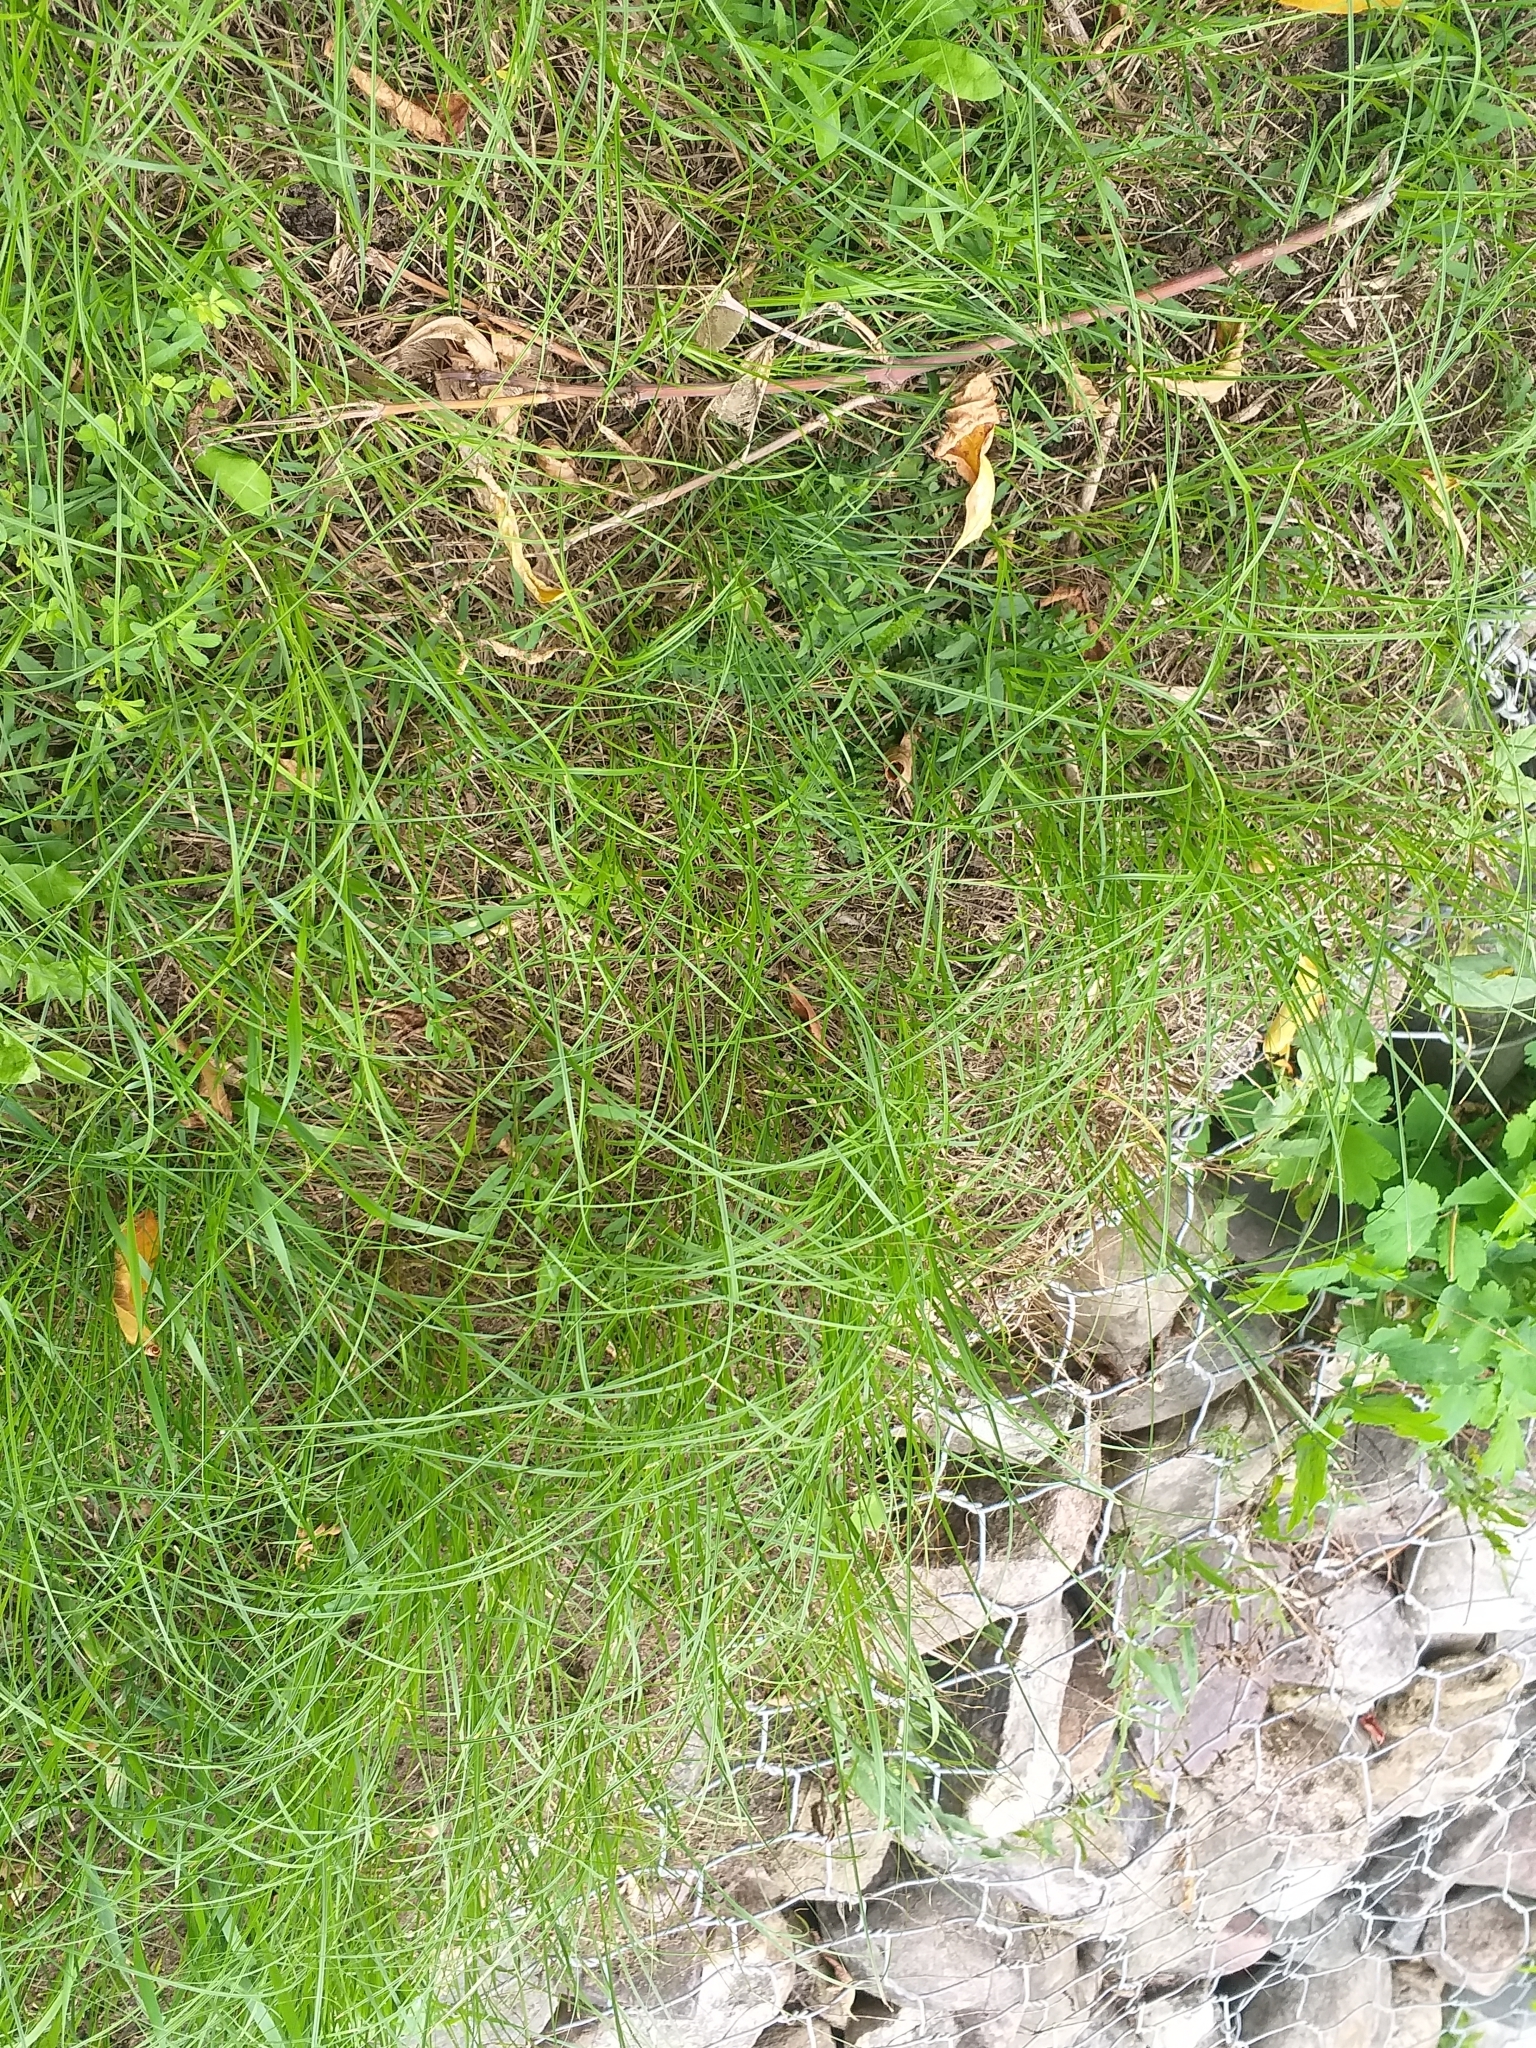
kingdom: Plantae
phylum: Tracheophyta
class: Liliopsida
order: Poales
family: Cyperaceae
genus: Carex
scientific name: Carex praecox
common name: Early sedge
